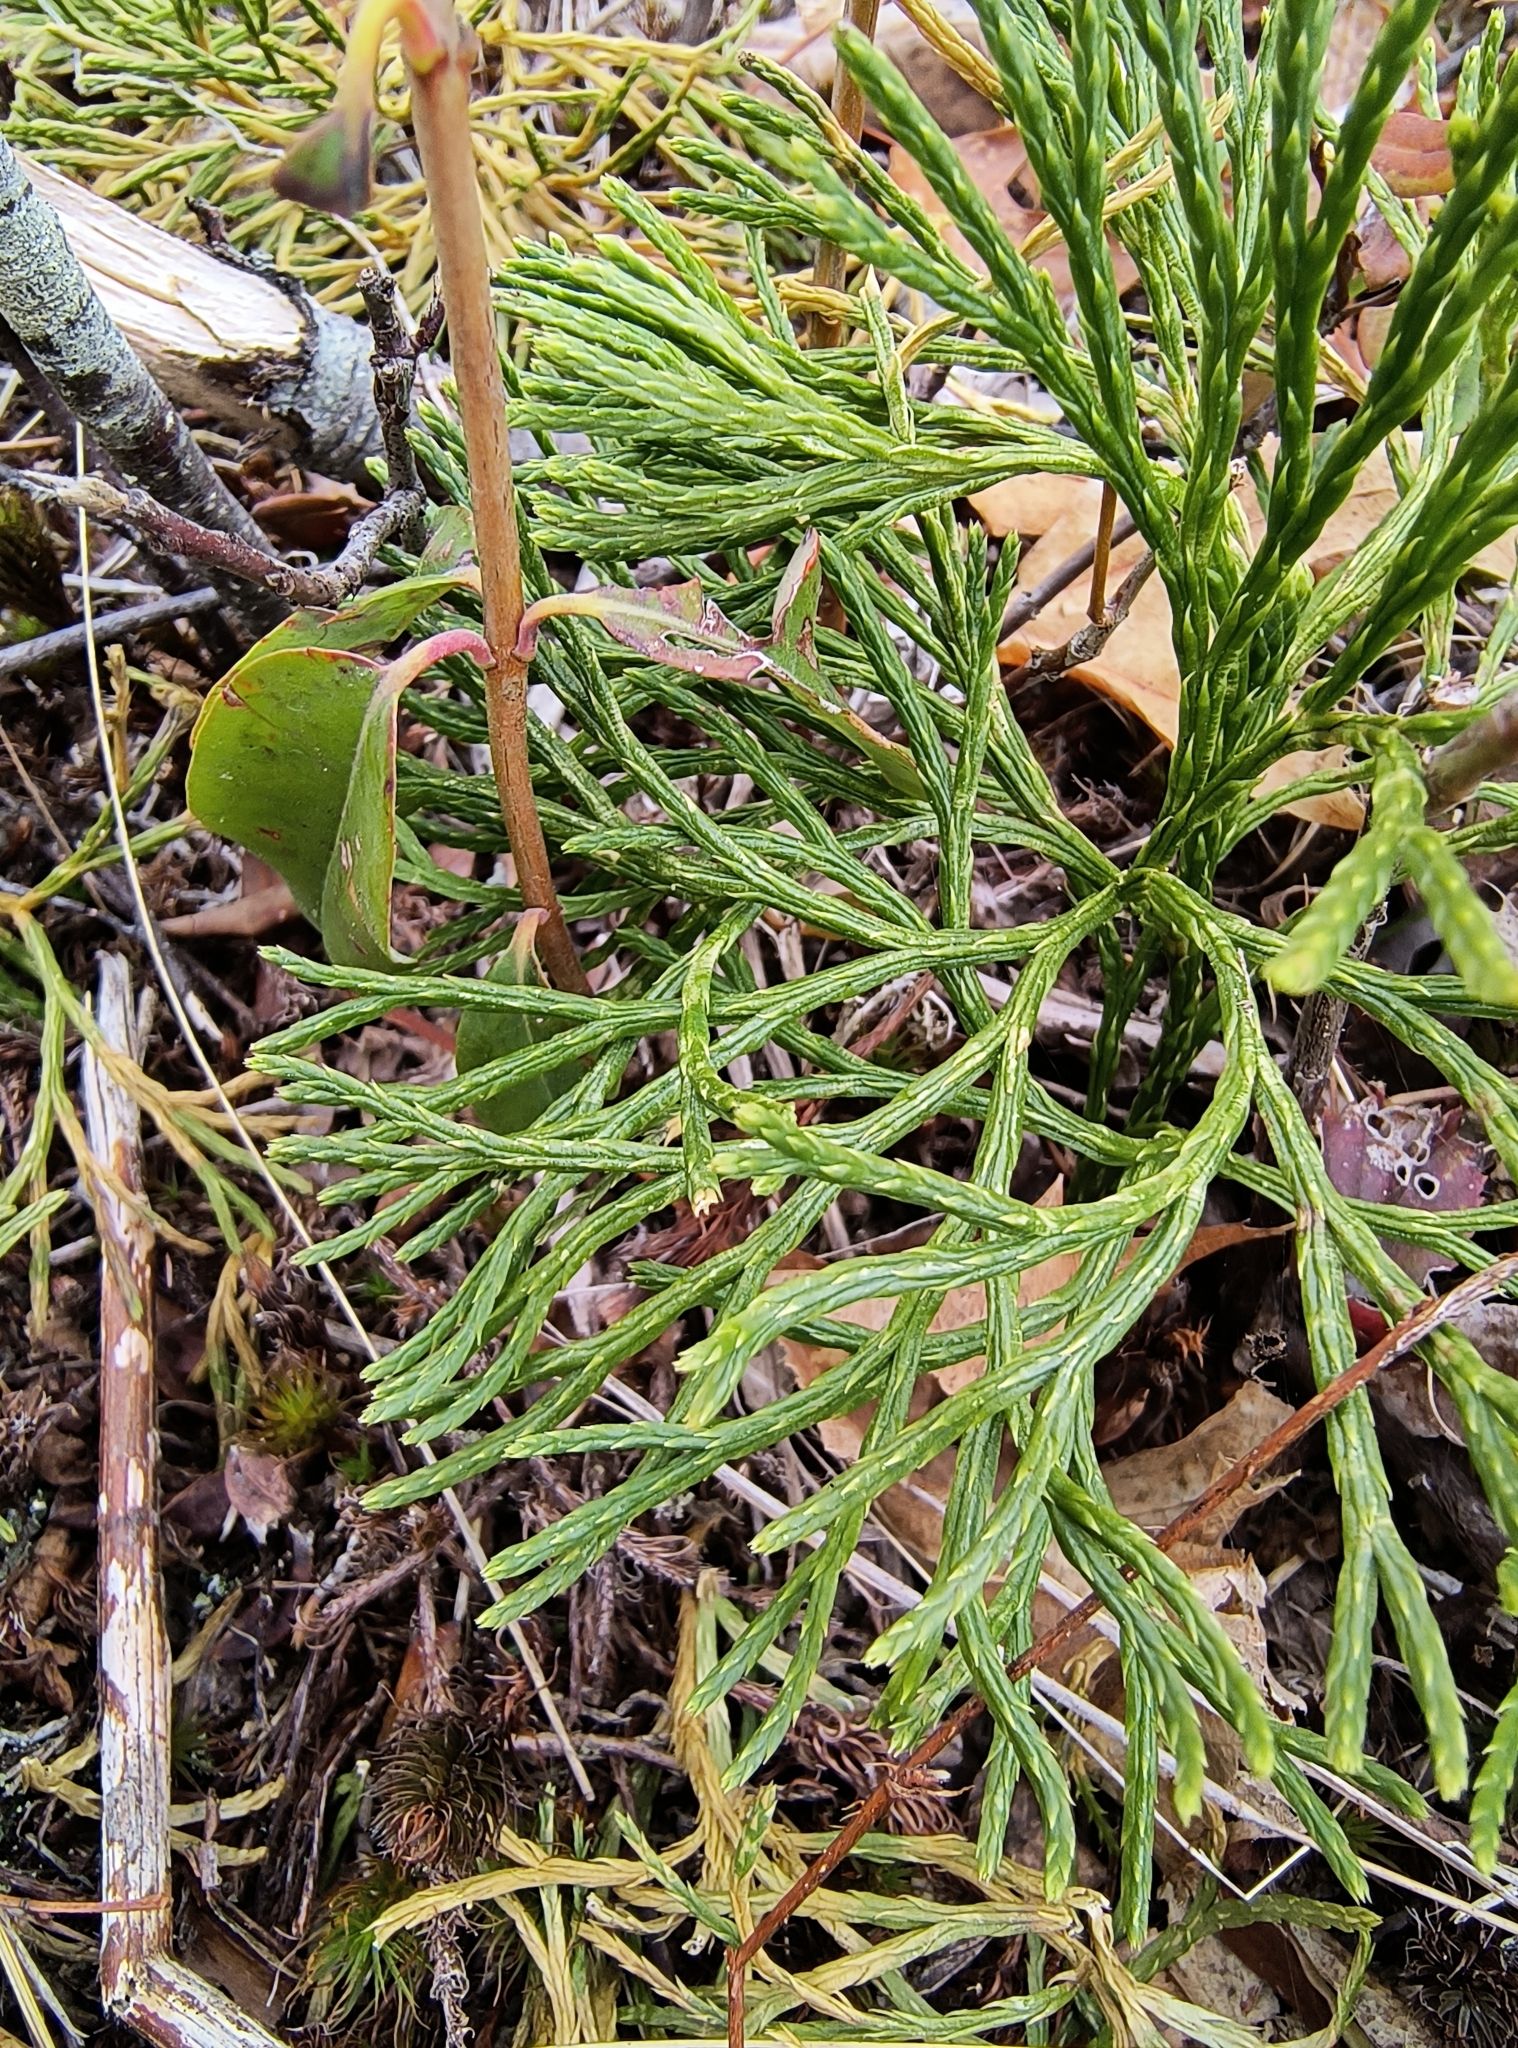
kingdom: Plantae
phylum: Tracheophyta
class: Lycopodiopsida
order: Lycopodiales
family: Lycopodiaceae
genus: Diphasiastrum
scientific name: Diphasiastrum digitatum
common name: Southern running-pine
